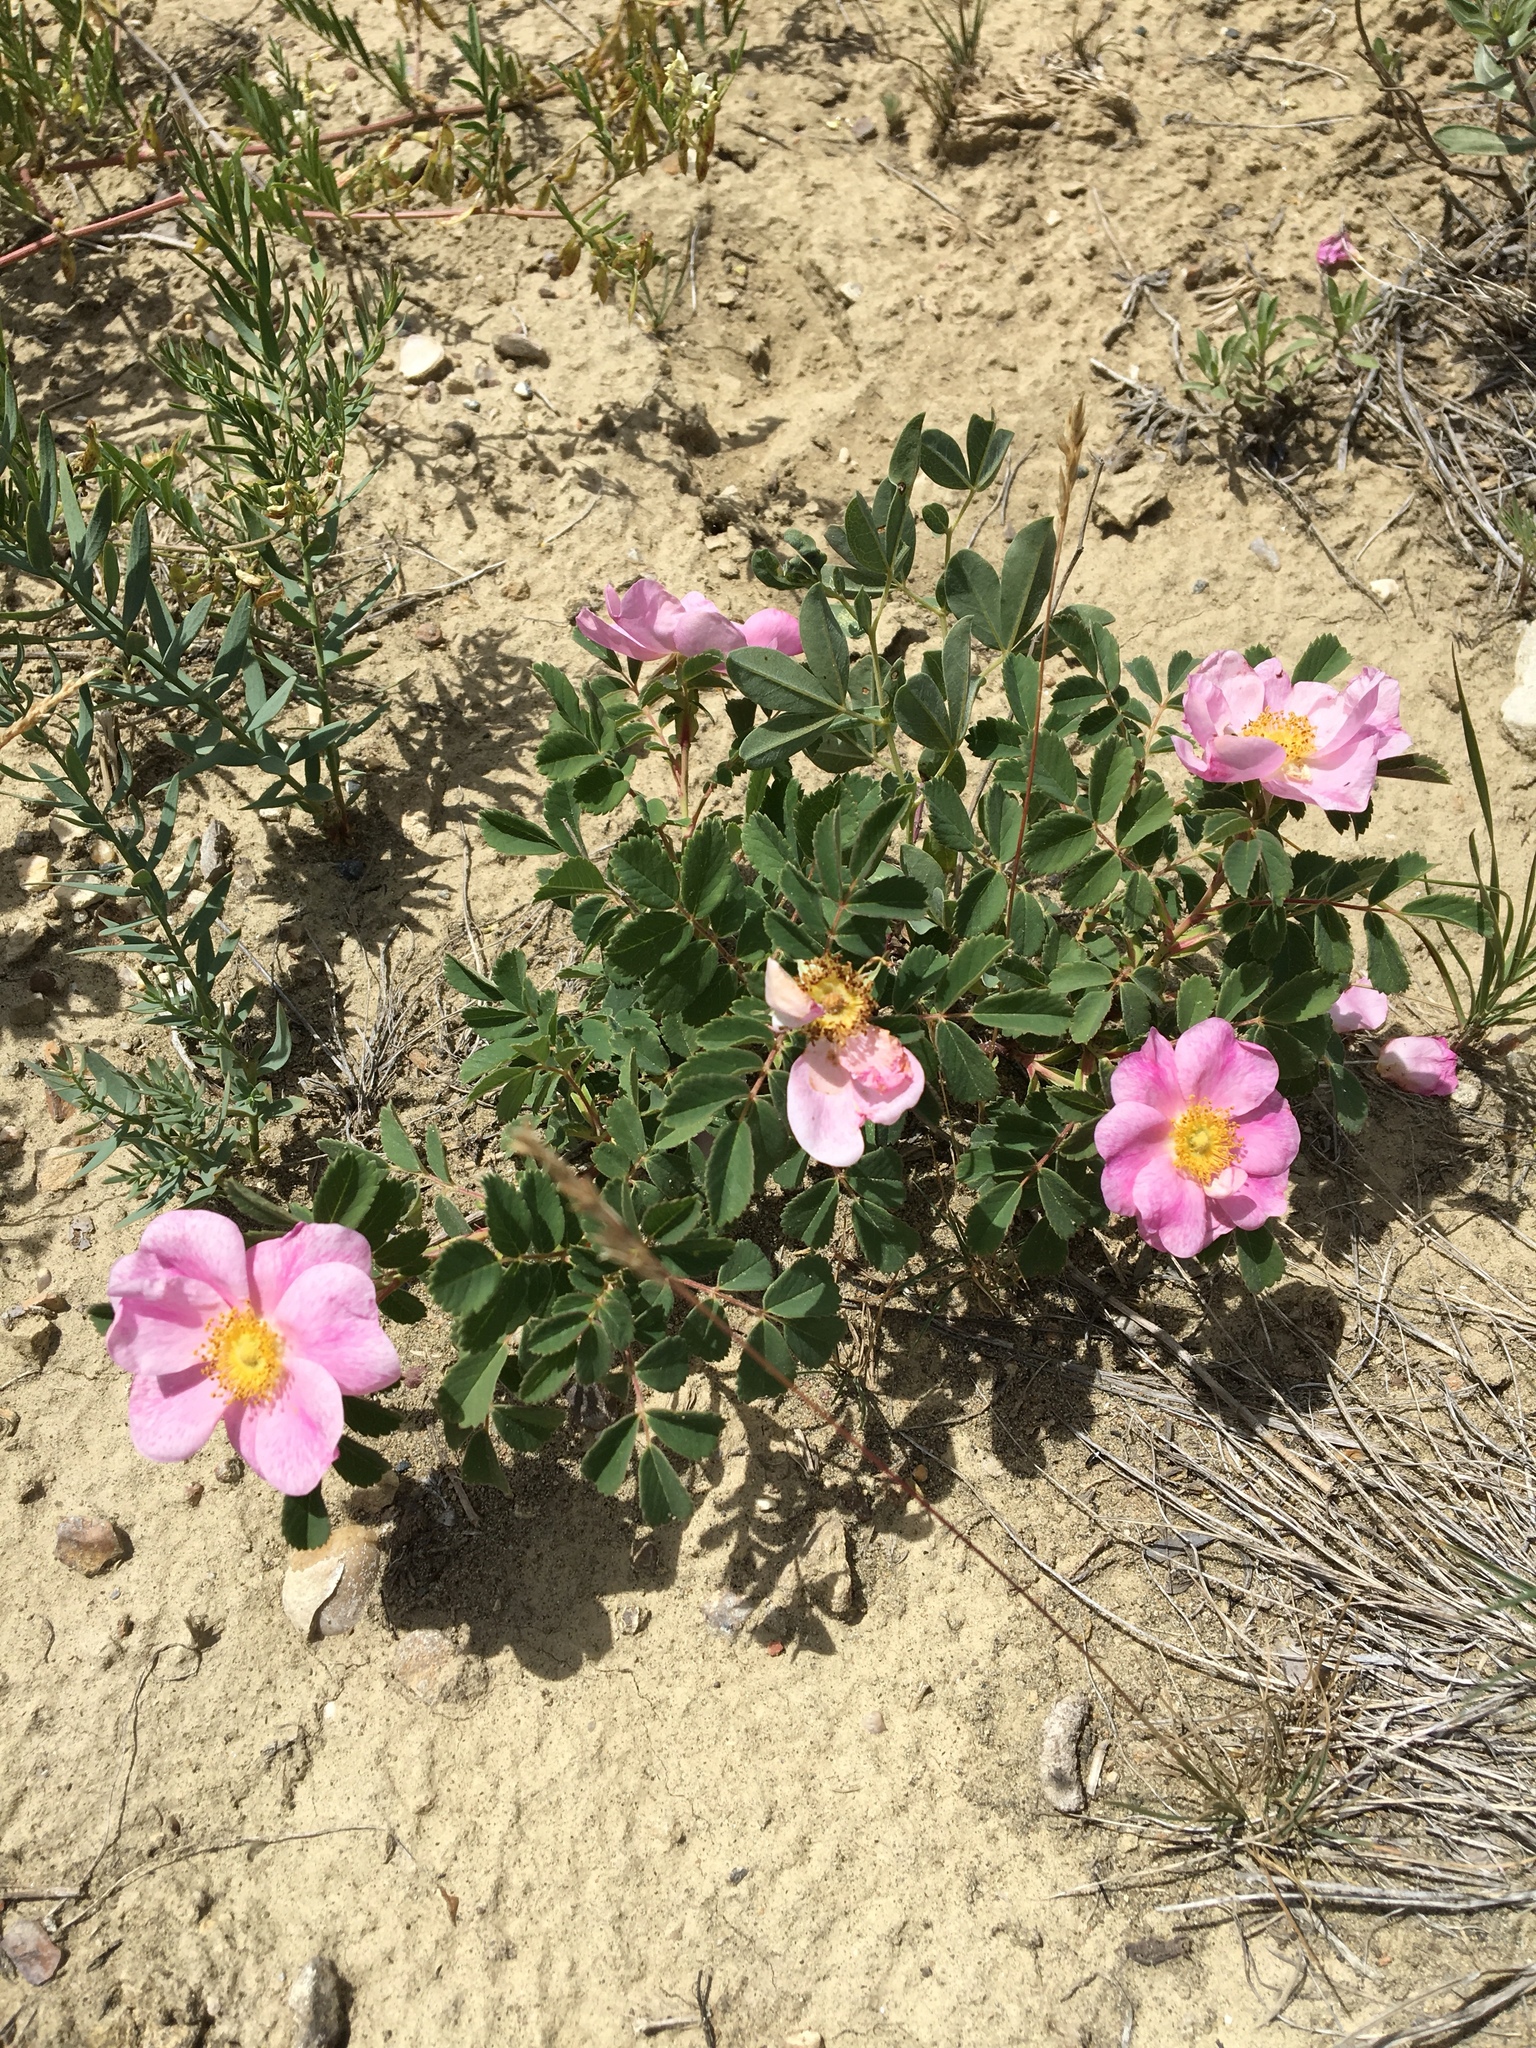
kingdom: Plantae
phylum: Tracheophyta
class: Magnoliopsida
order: Rosales
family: Rosaceae
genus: Rosa
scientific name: Rosa arkansana
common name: Prairie rose
